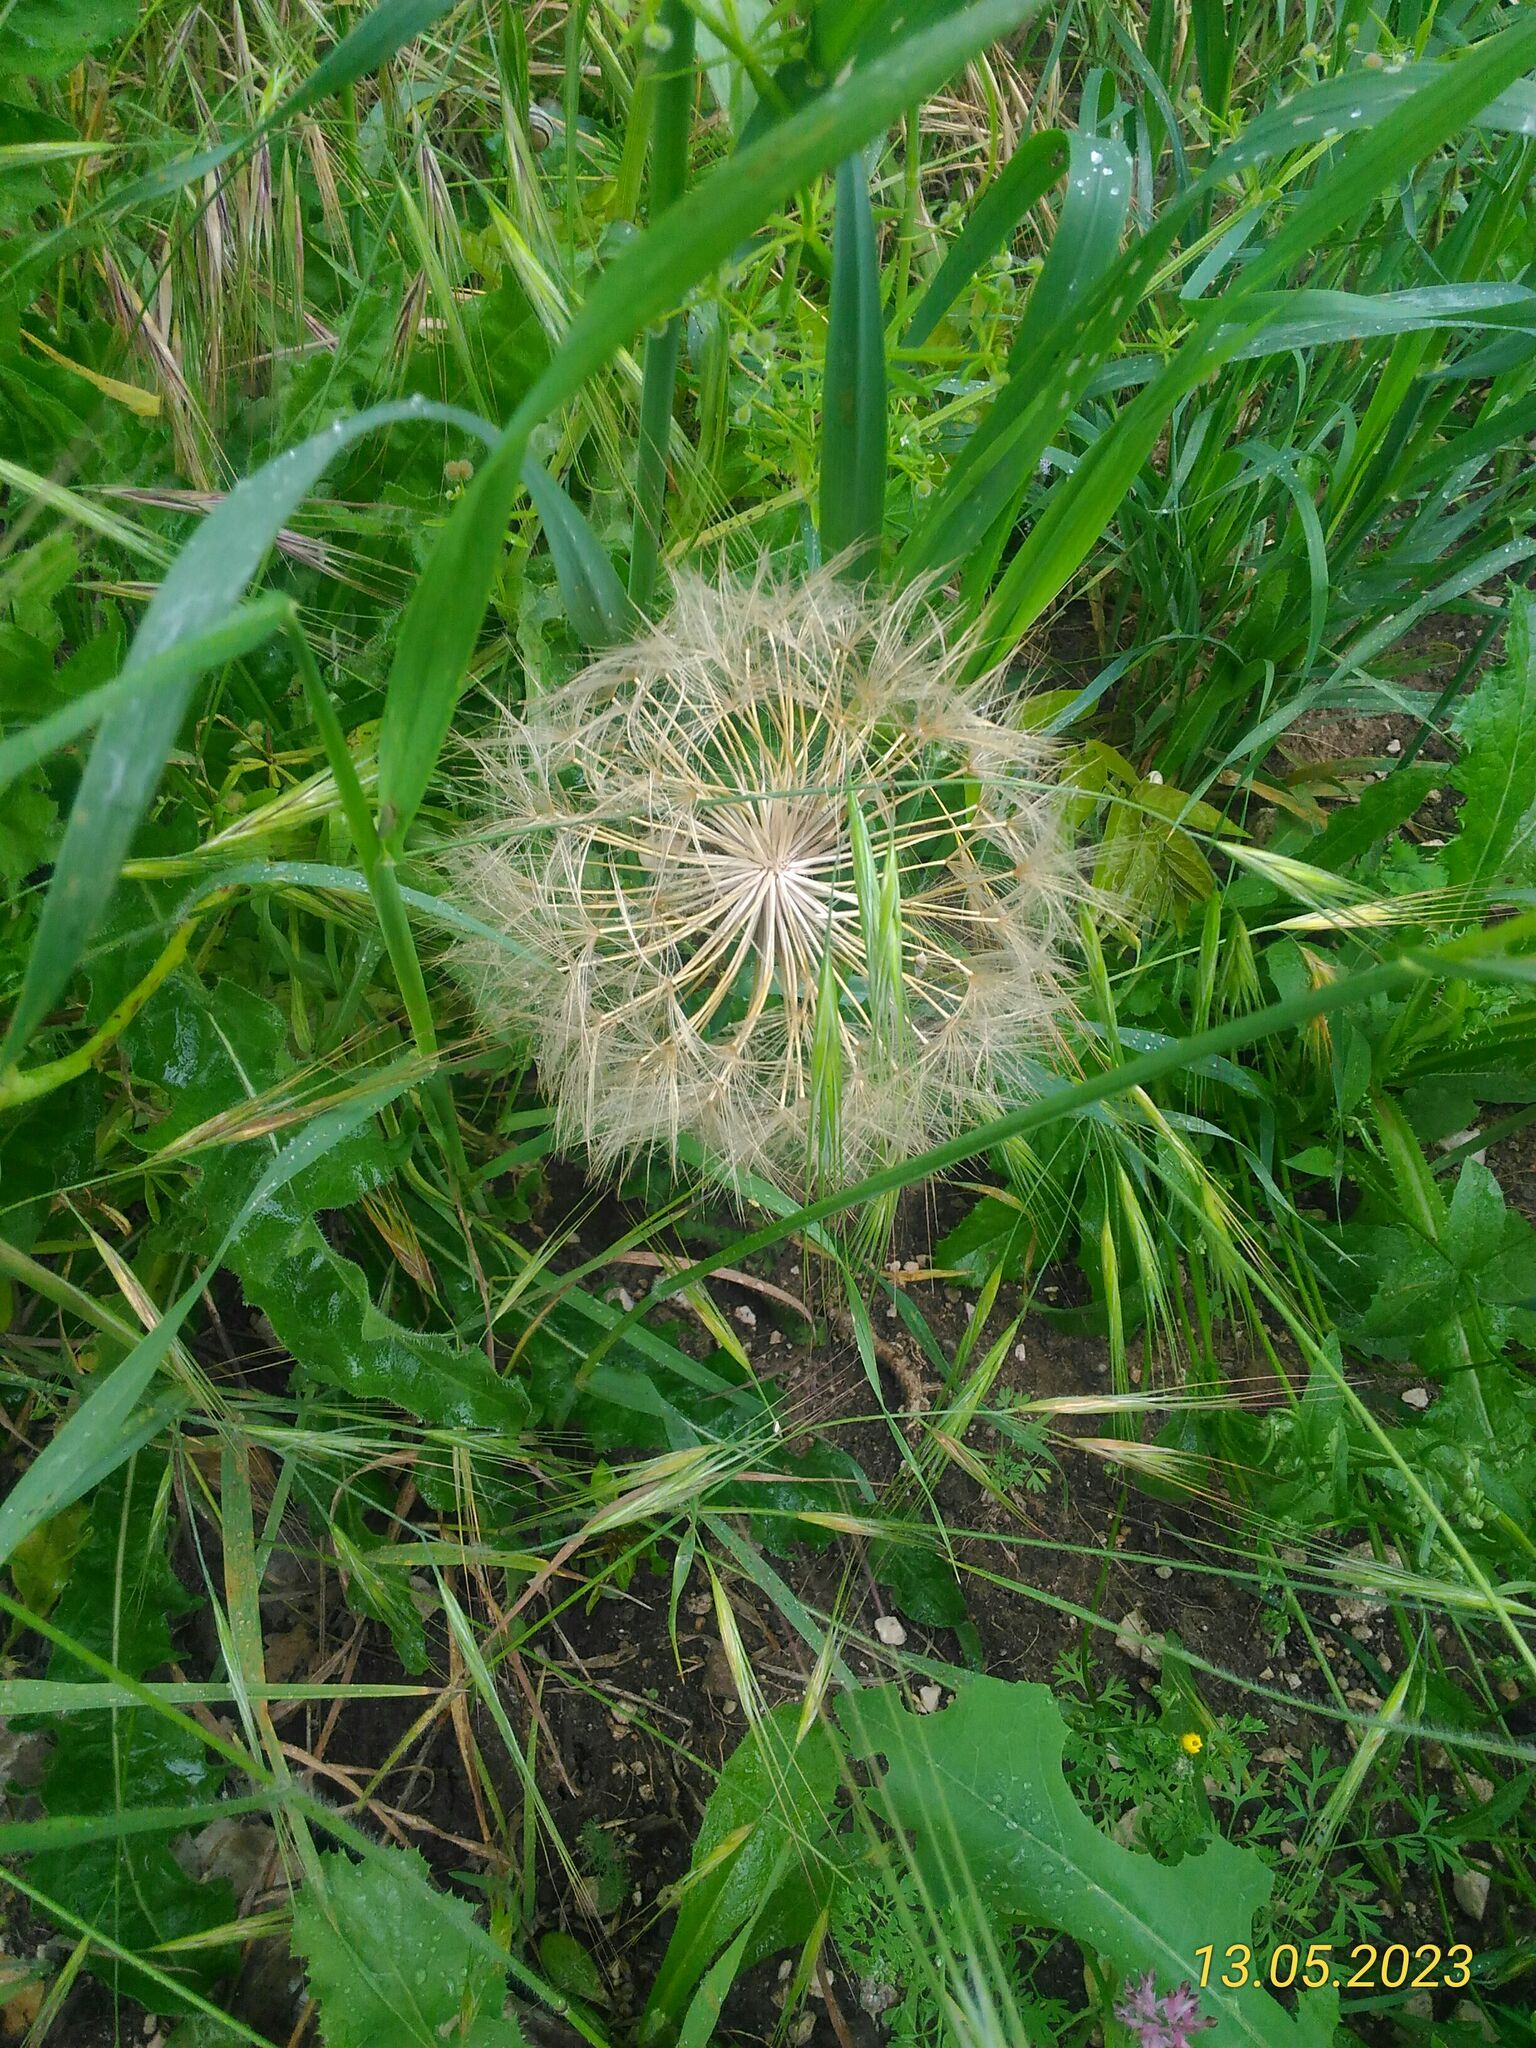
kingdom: Plantae
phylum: Tracheophyta
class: Magnoliopsida
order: Asterales
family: Asteraceae
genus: Tragopogon
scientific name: Tragopogon porrifolius
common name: Salsify
